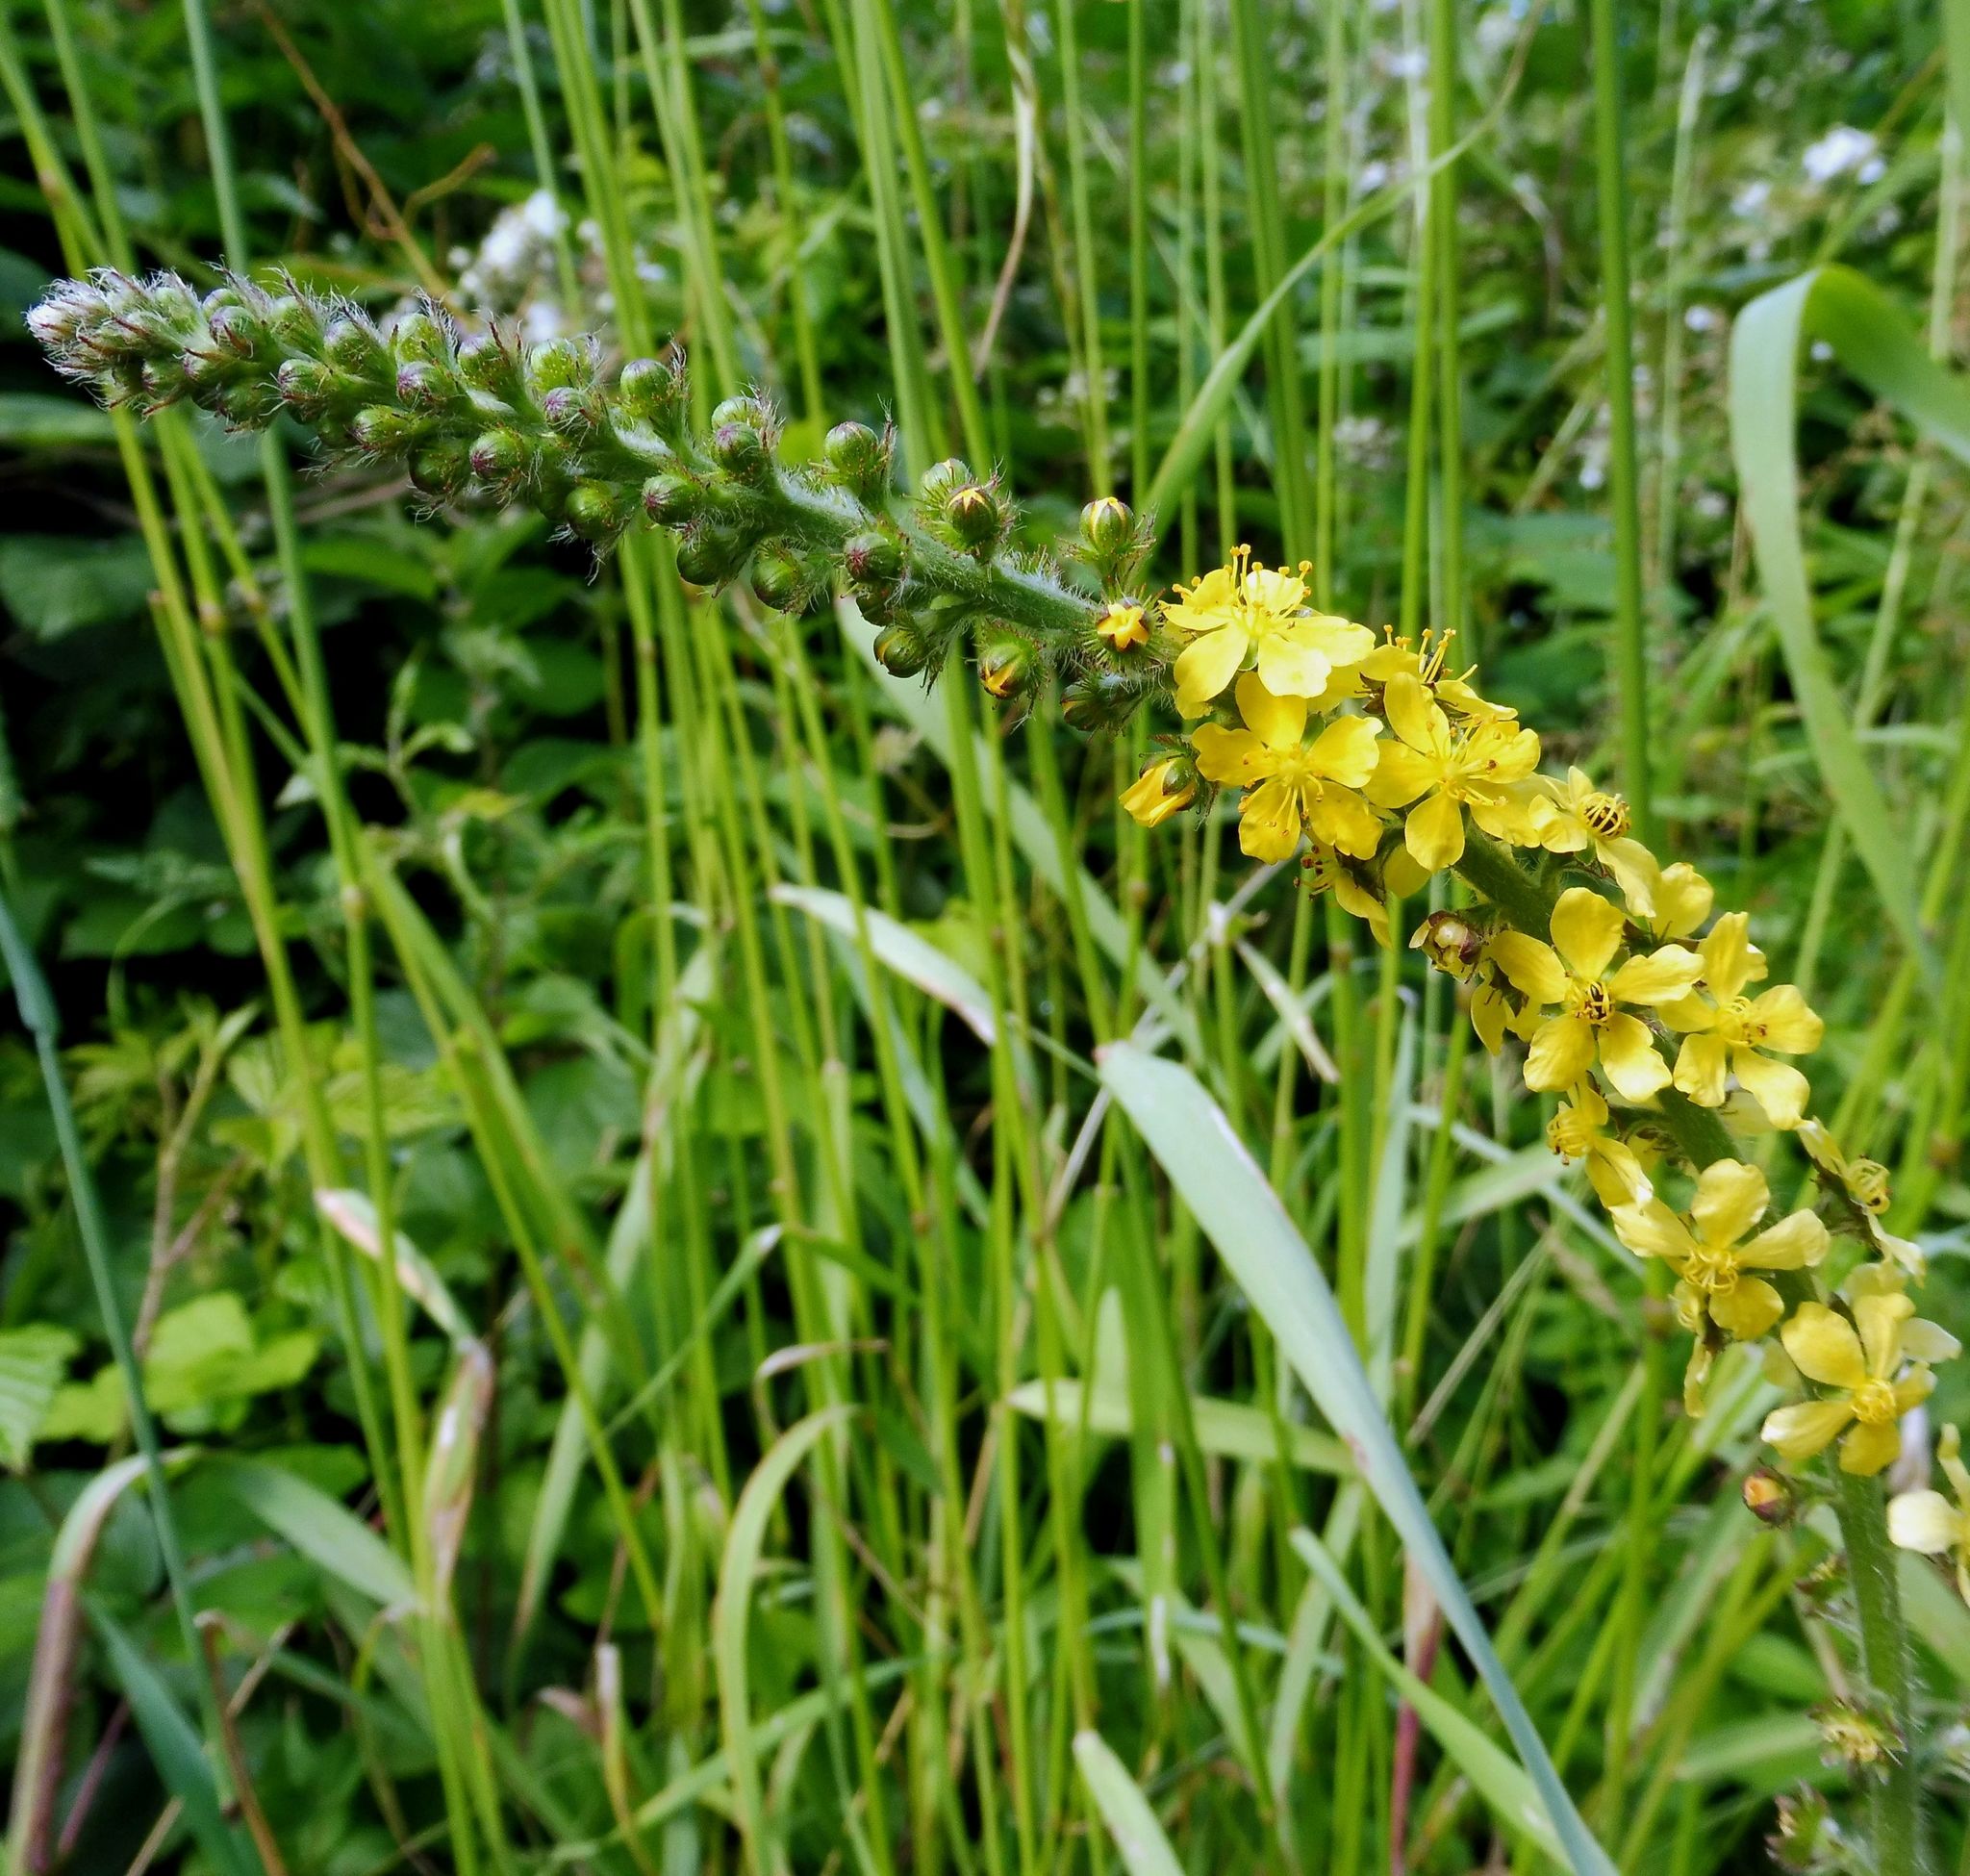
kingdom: Plantae
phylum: Tracheophyta
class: Magnoliopsida
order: Rosales
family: Rosaceae
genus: Agrimonia
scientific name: Agrimonia eupatoria
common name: Agrimony
